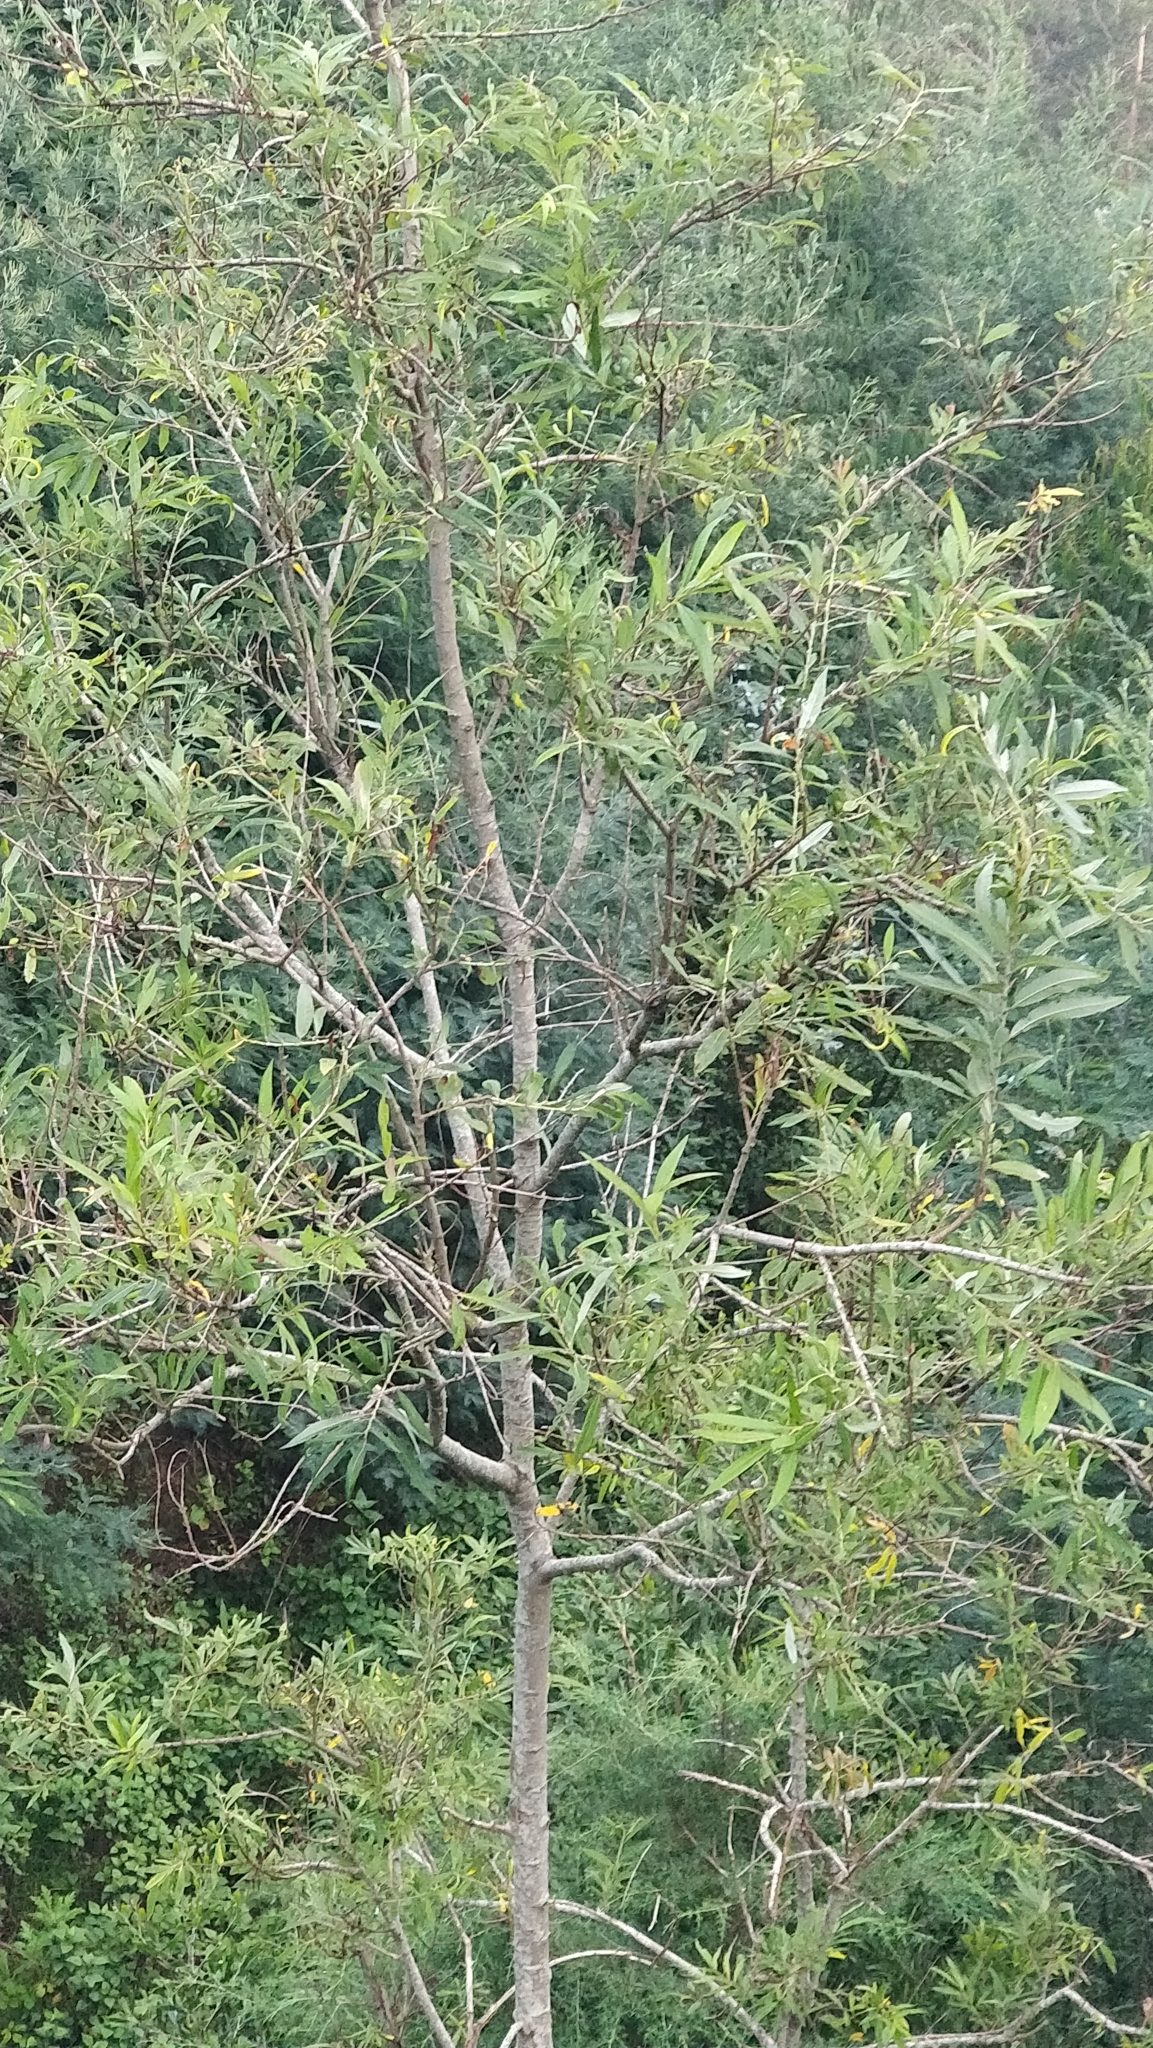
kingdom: Plantae
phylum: Tracheophyta
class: Magnoliopsida
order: Malpighiales
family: Salicaceae
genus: Salix
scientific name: Salix canariensis
